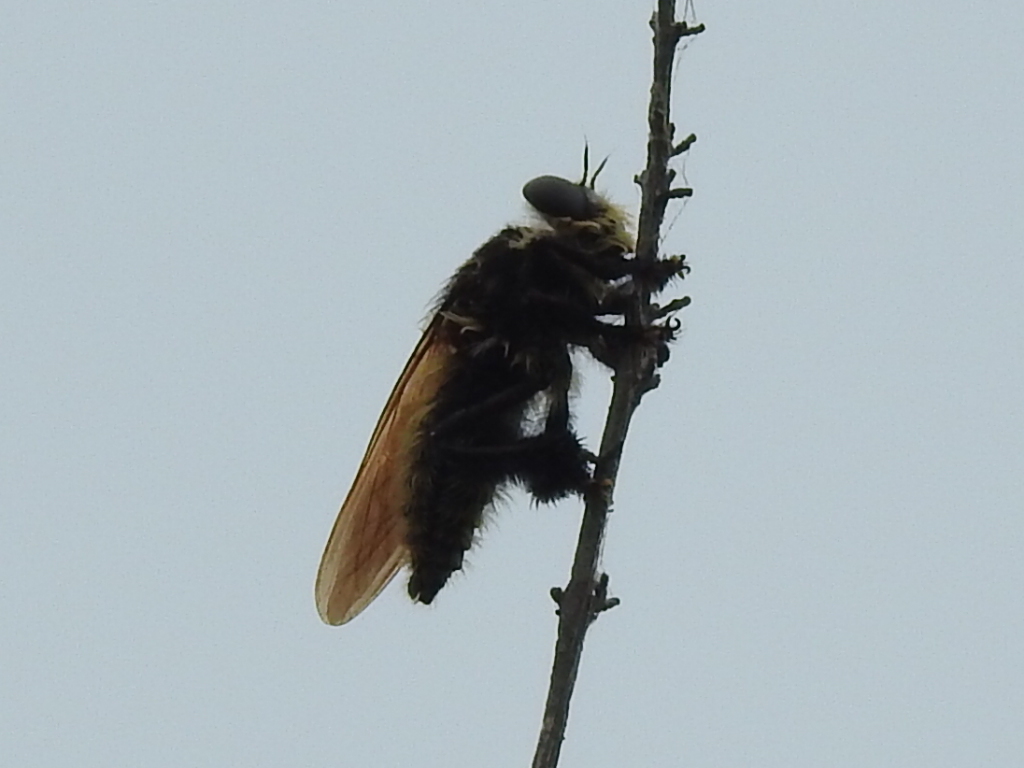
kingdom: Animalia
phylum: Arthropoda
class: Insecta
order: Diptera
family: Asilidae
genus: Mallophora
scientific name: Mallophora fautrix
